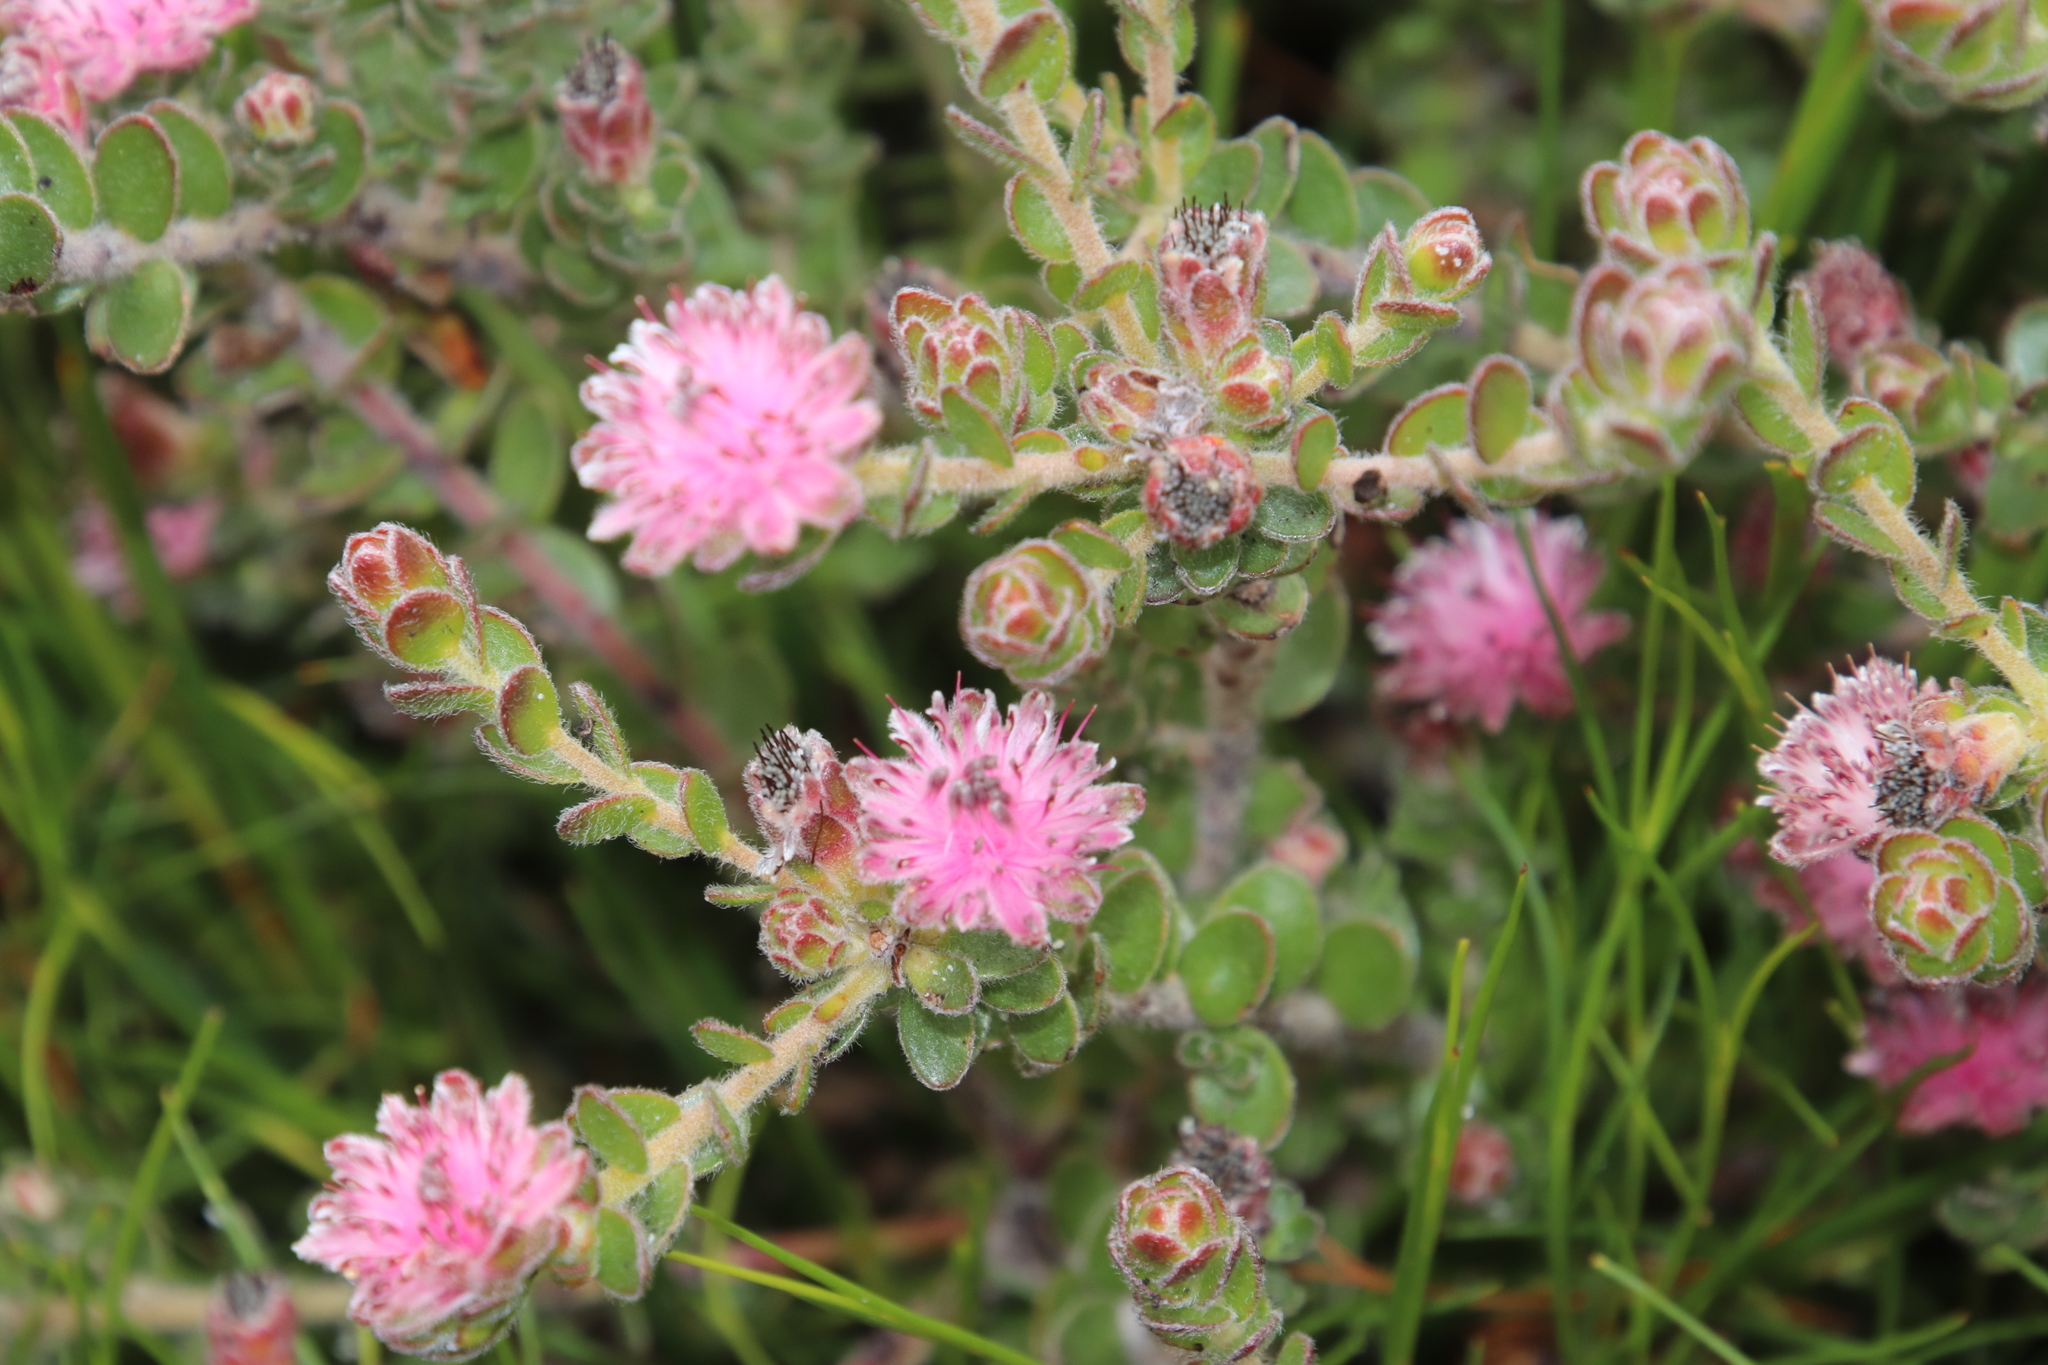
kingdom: Plantae
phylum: Tracheophyta
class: Magnoliopsida
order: Proteales
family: Proteaceae
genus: Diastella
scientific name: Diastella divaricata
